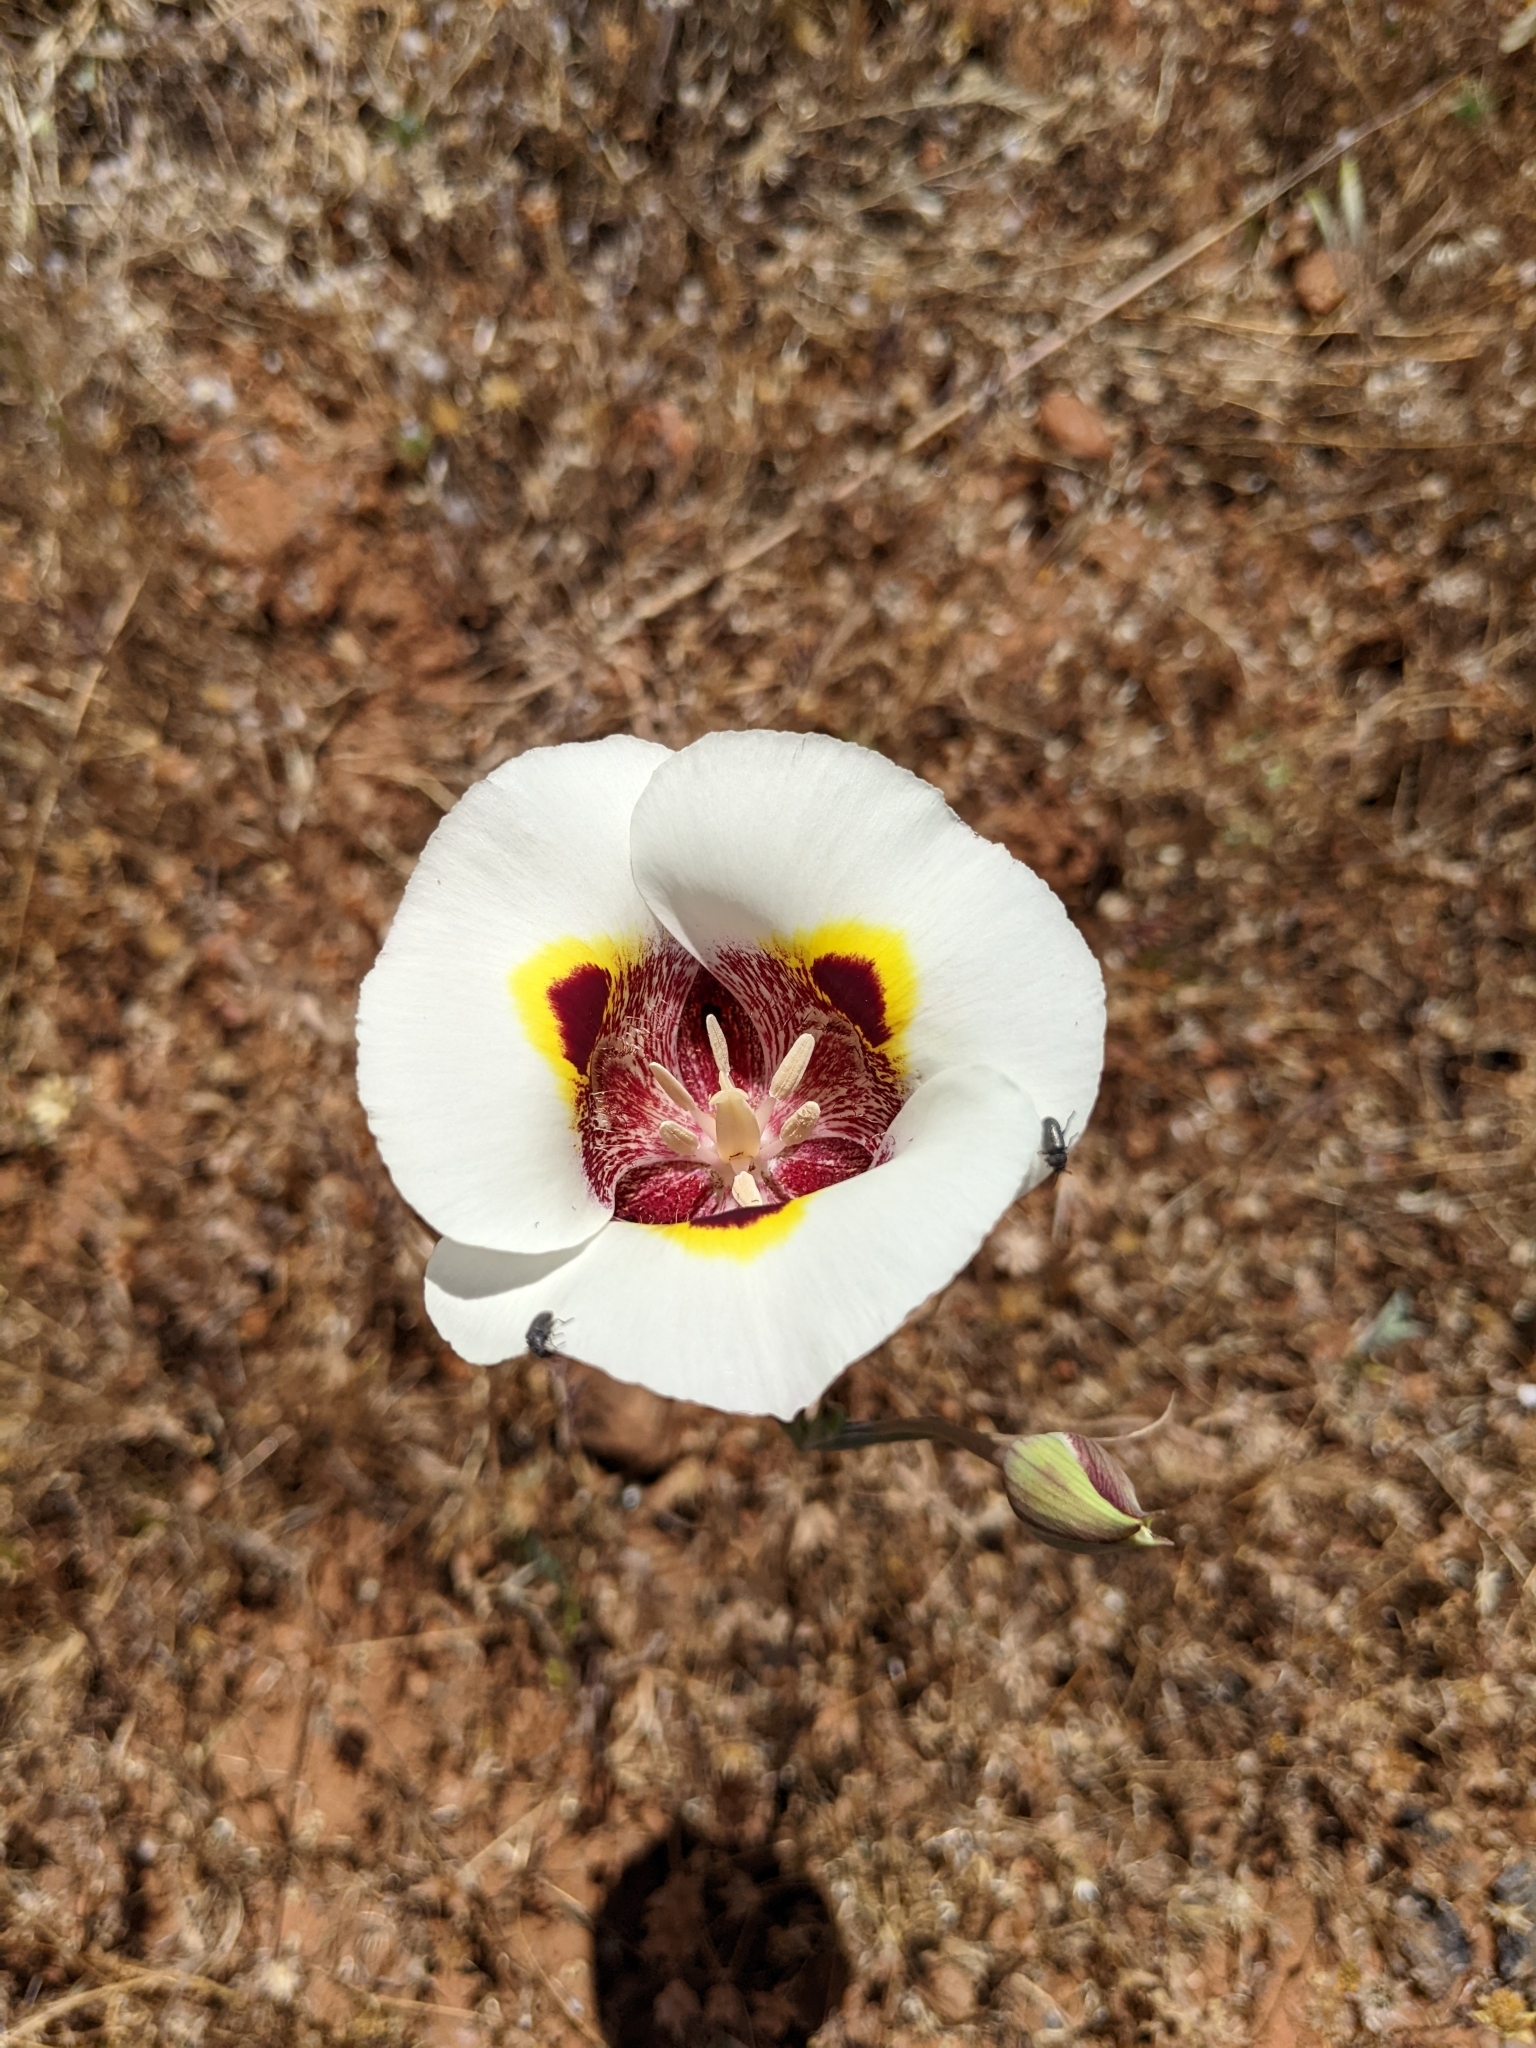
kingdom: Plantae
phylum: Tracheophyta
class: Liliopsida
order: Liliales
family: Liliaceae
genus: Calochortus
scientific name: Calochortus superbus
